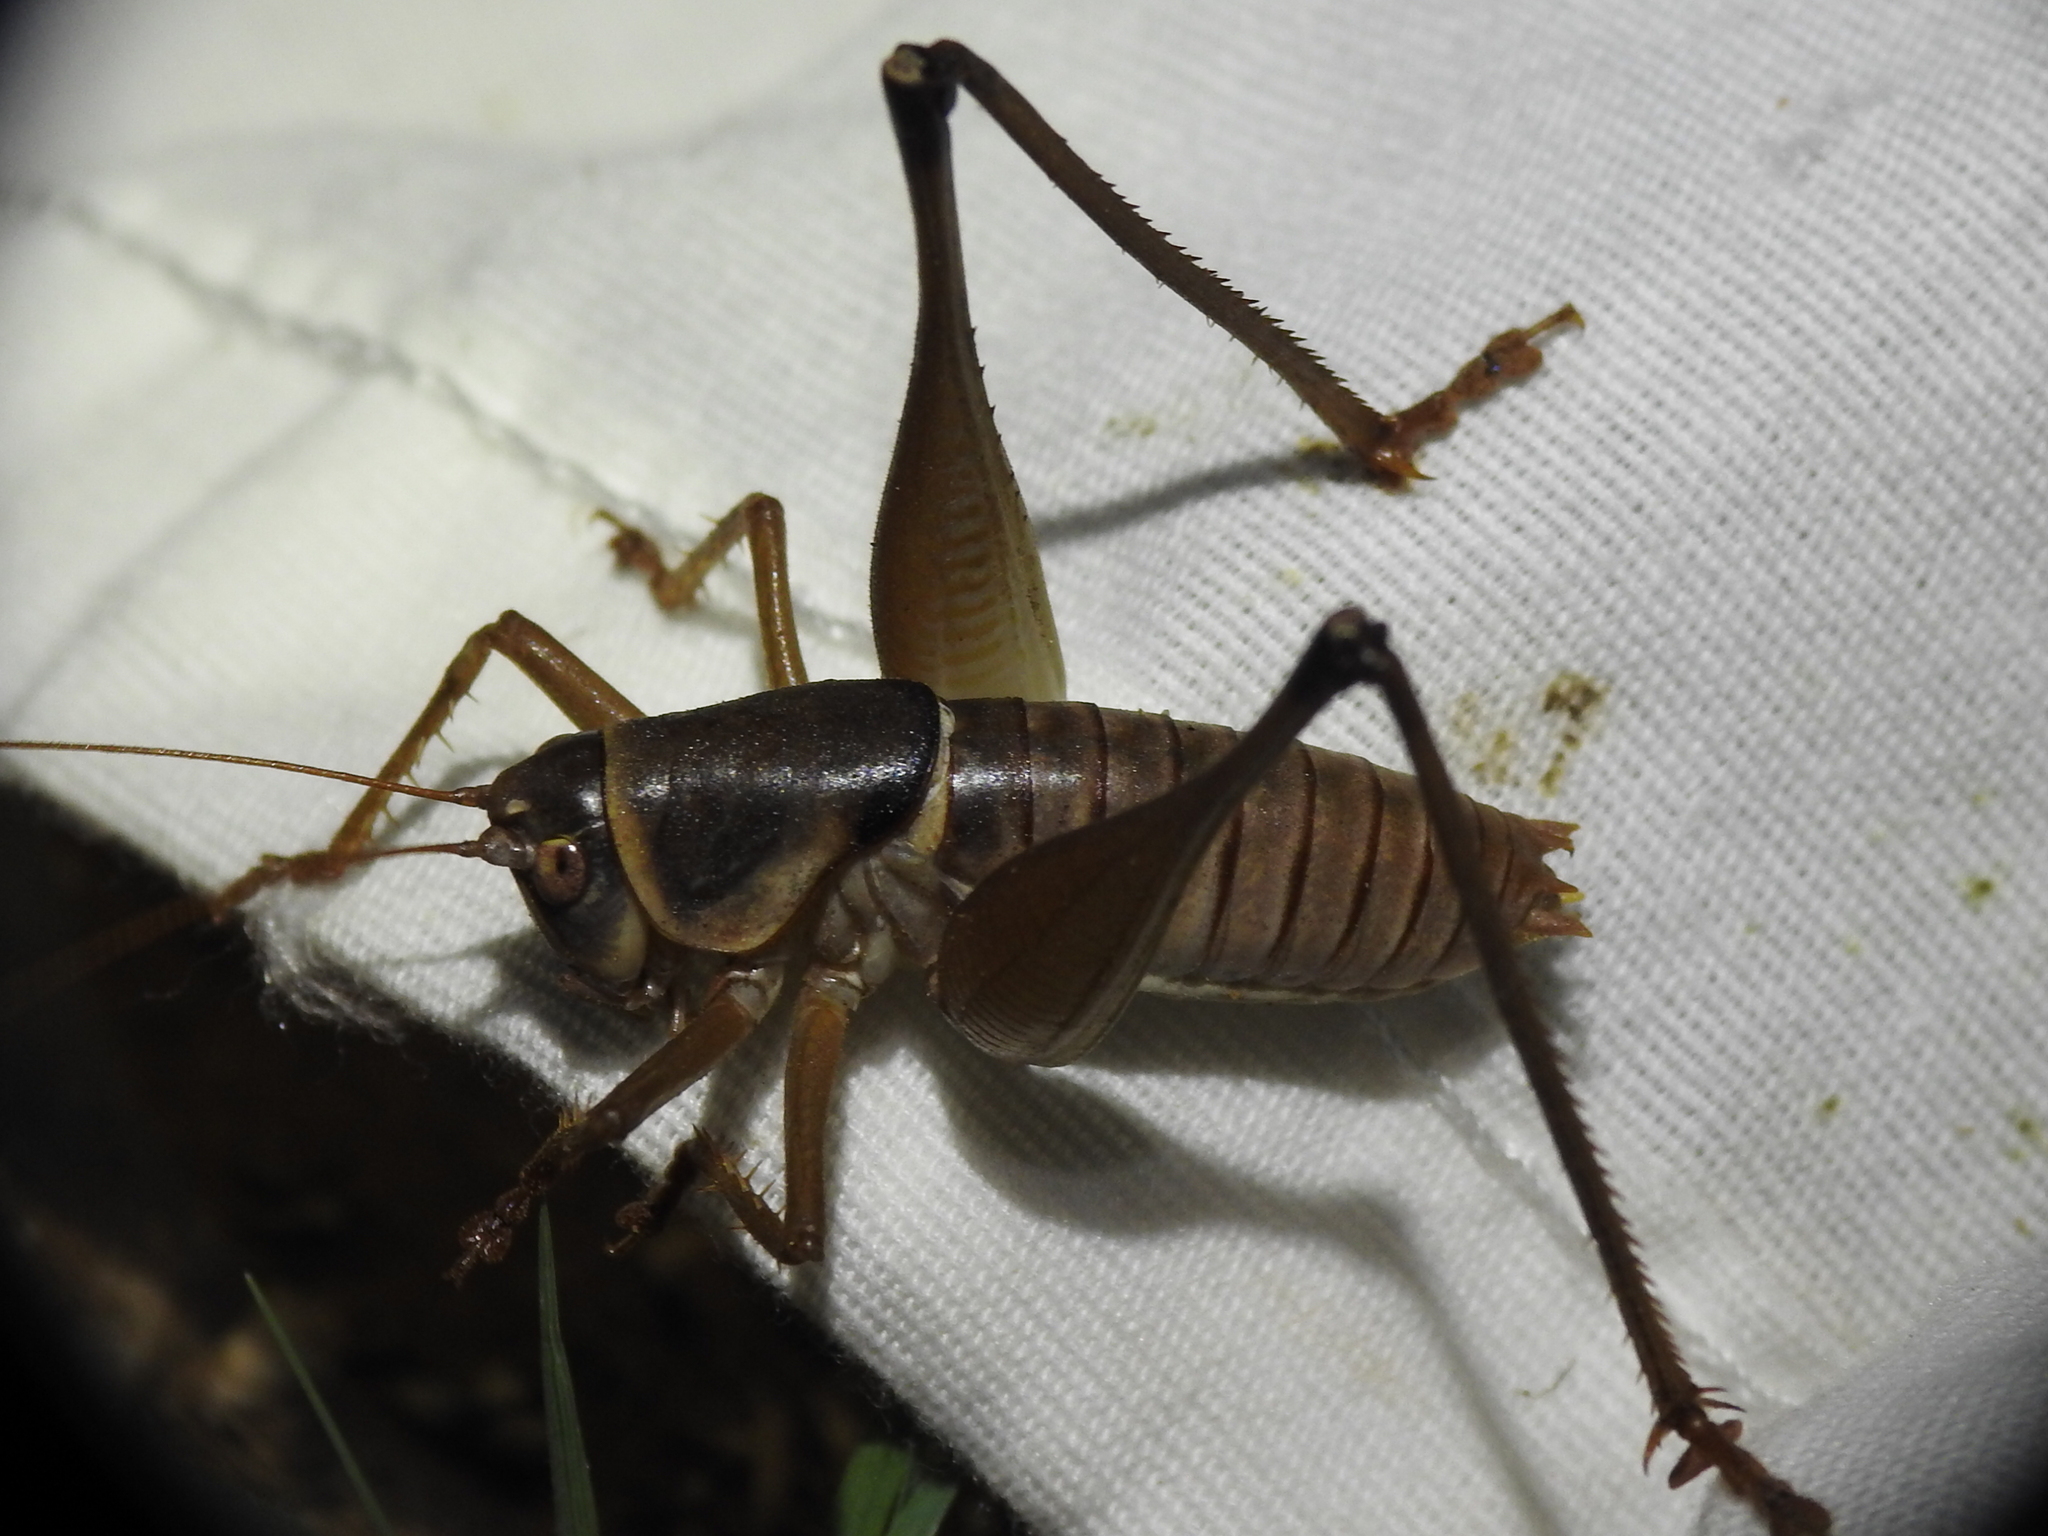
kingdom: Animalia
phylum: Arthropoda
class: Insecta
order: Orthoptera
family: Tettigoniidae
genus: Pediodectes
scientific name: Pediodectes bruneri
